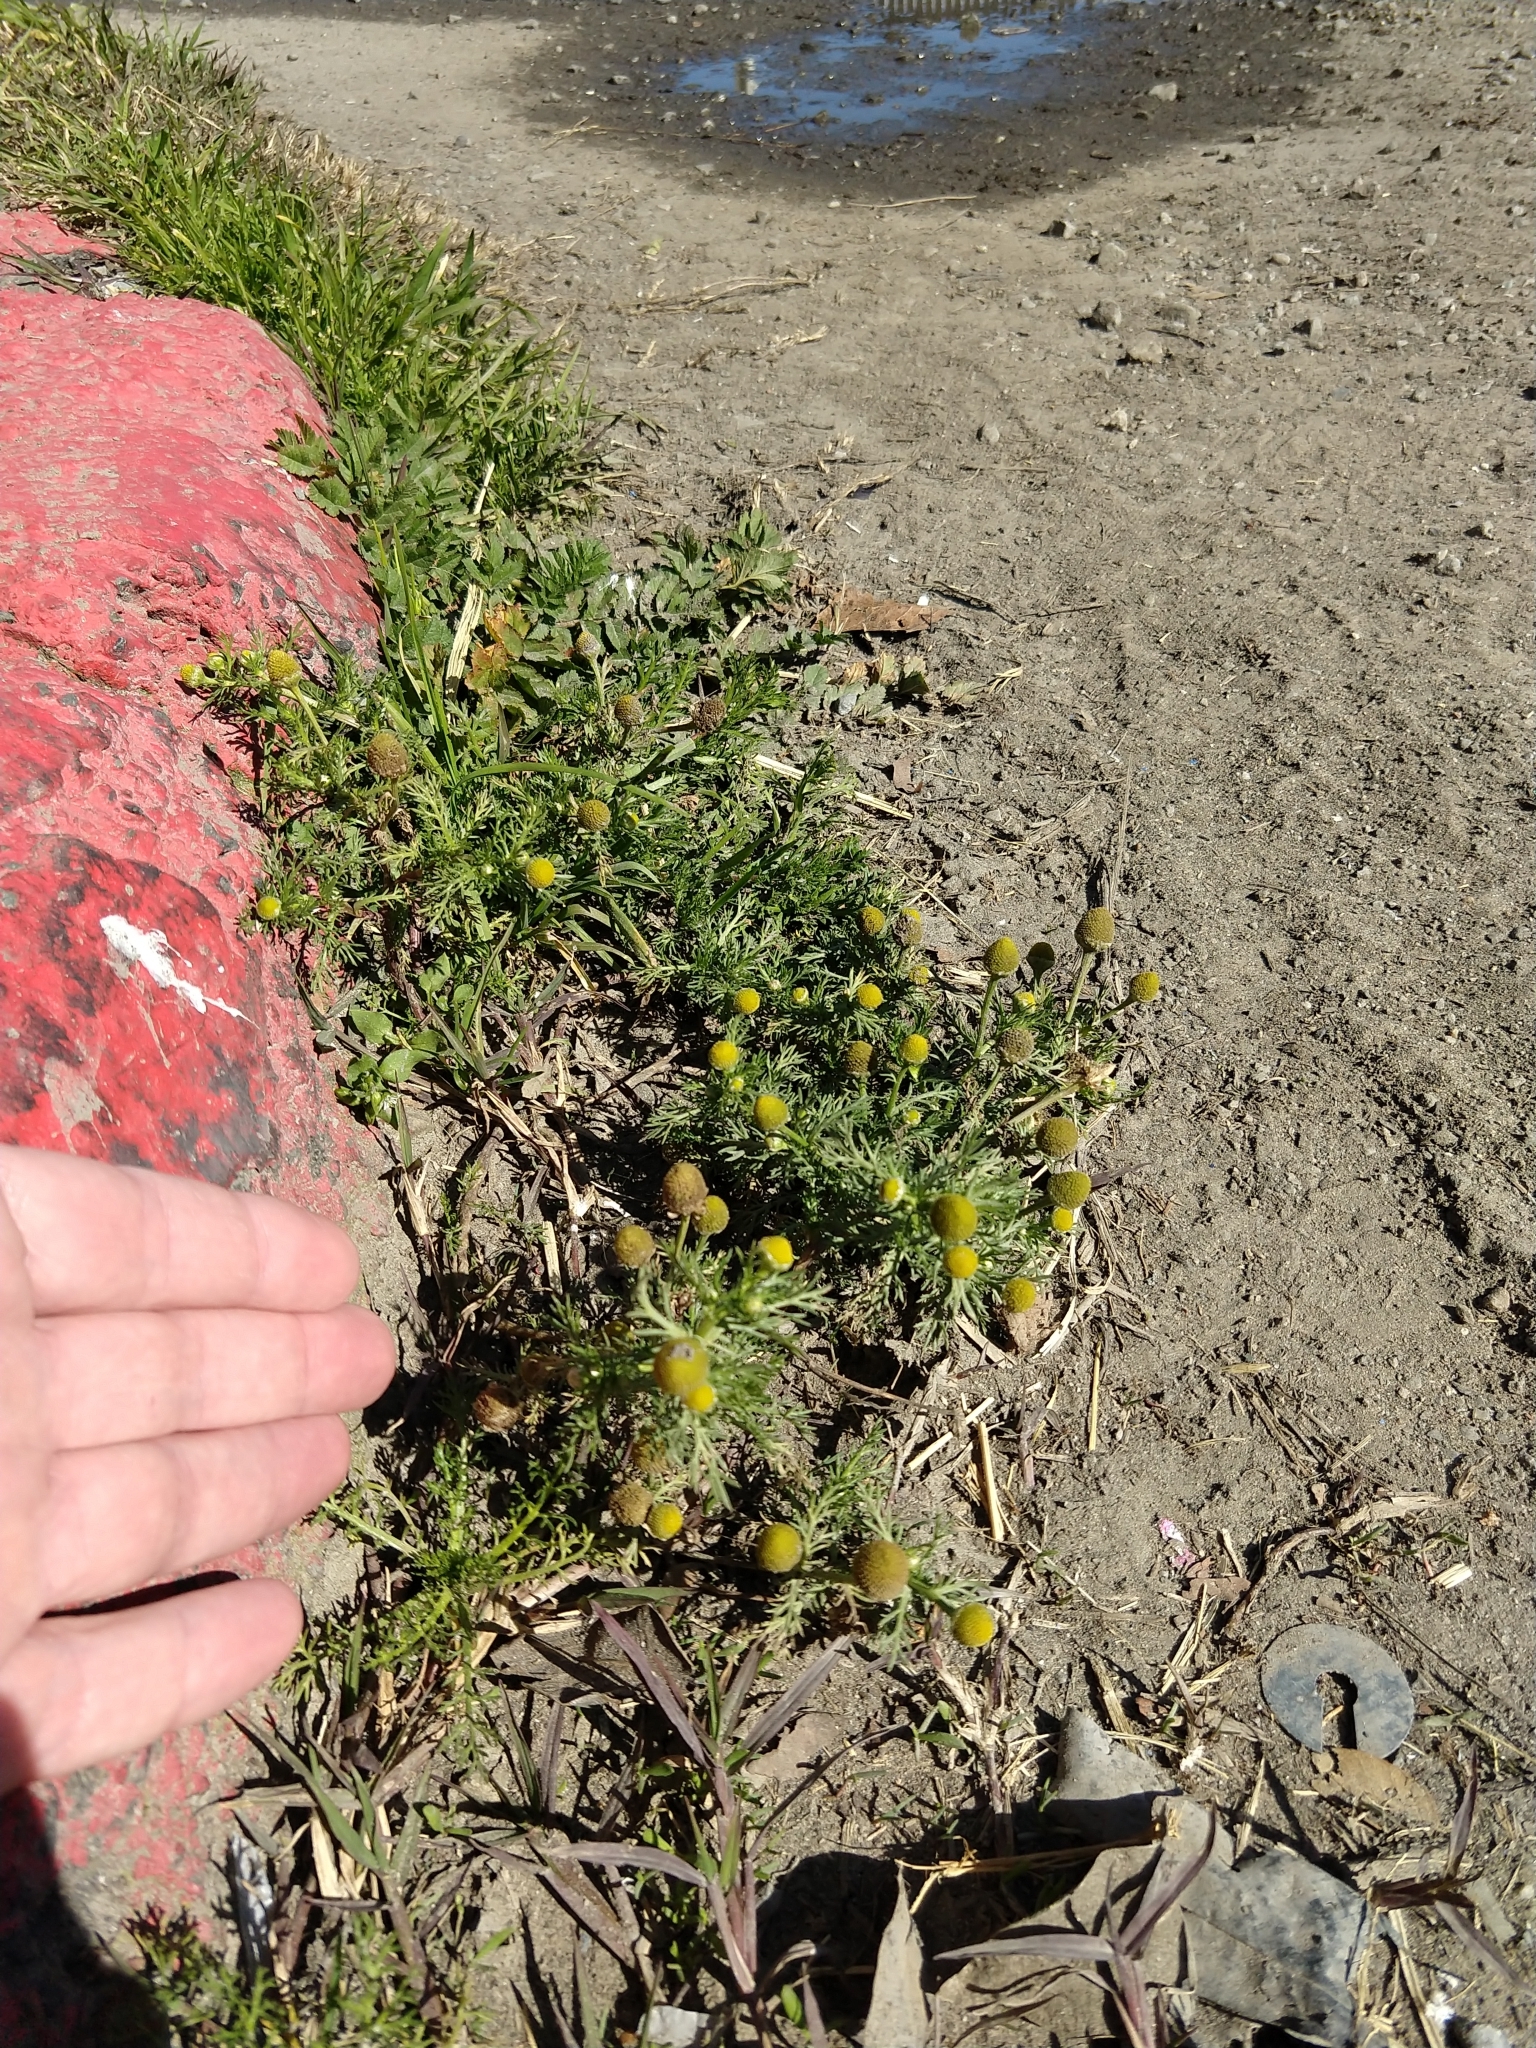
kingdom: Plantae
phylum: Tracheophyta
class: Magnoliopsida
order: Asterales
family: Asteraceae
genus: Matricaria
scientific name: Matricaria discoidea
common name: Disc mayweed
